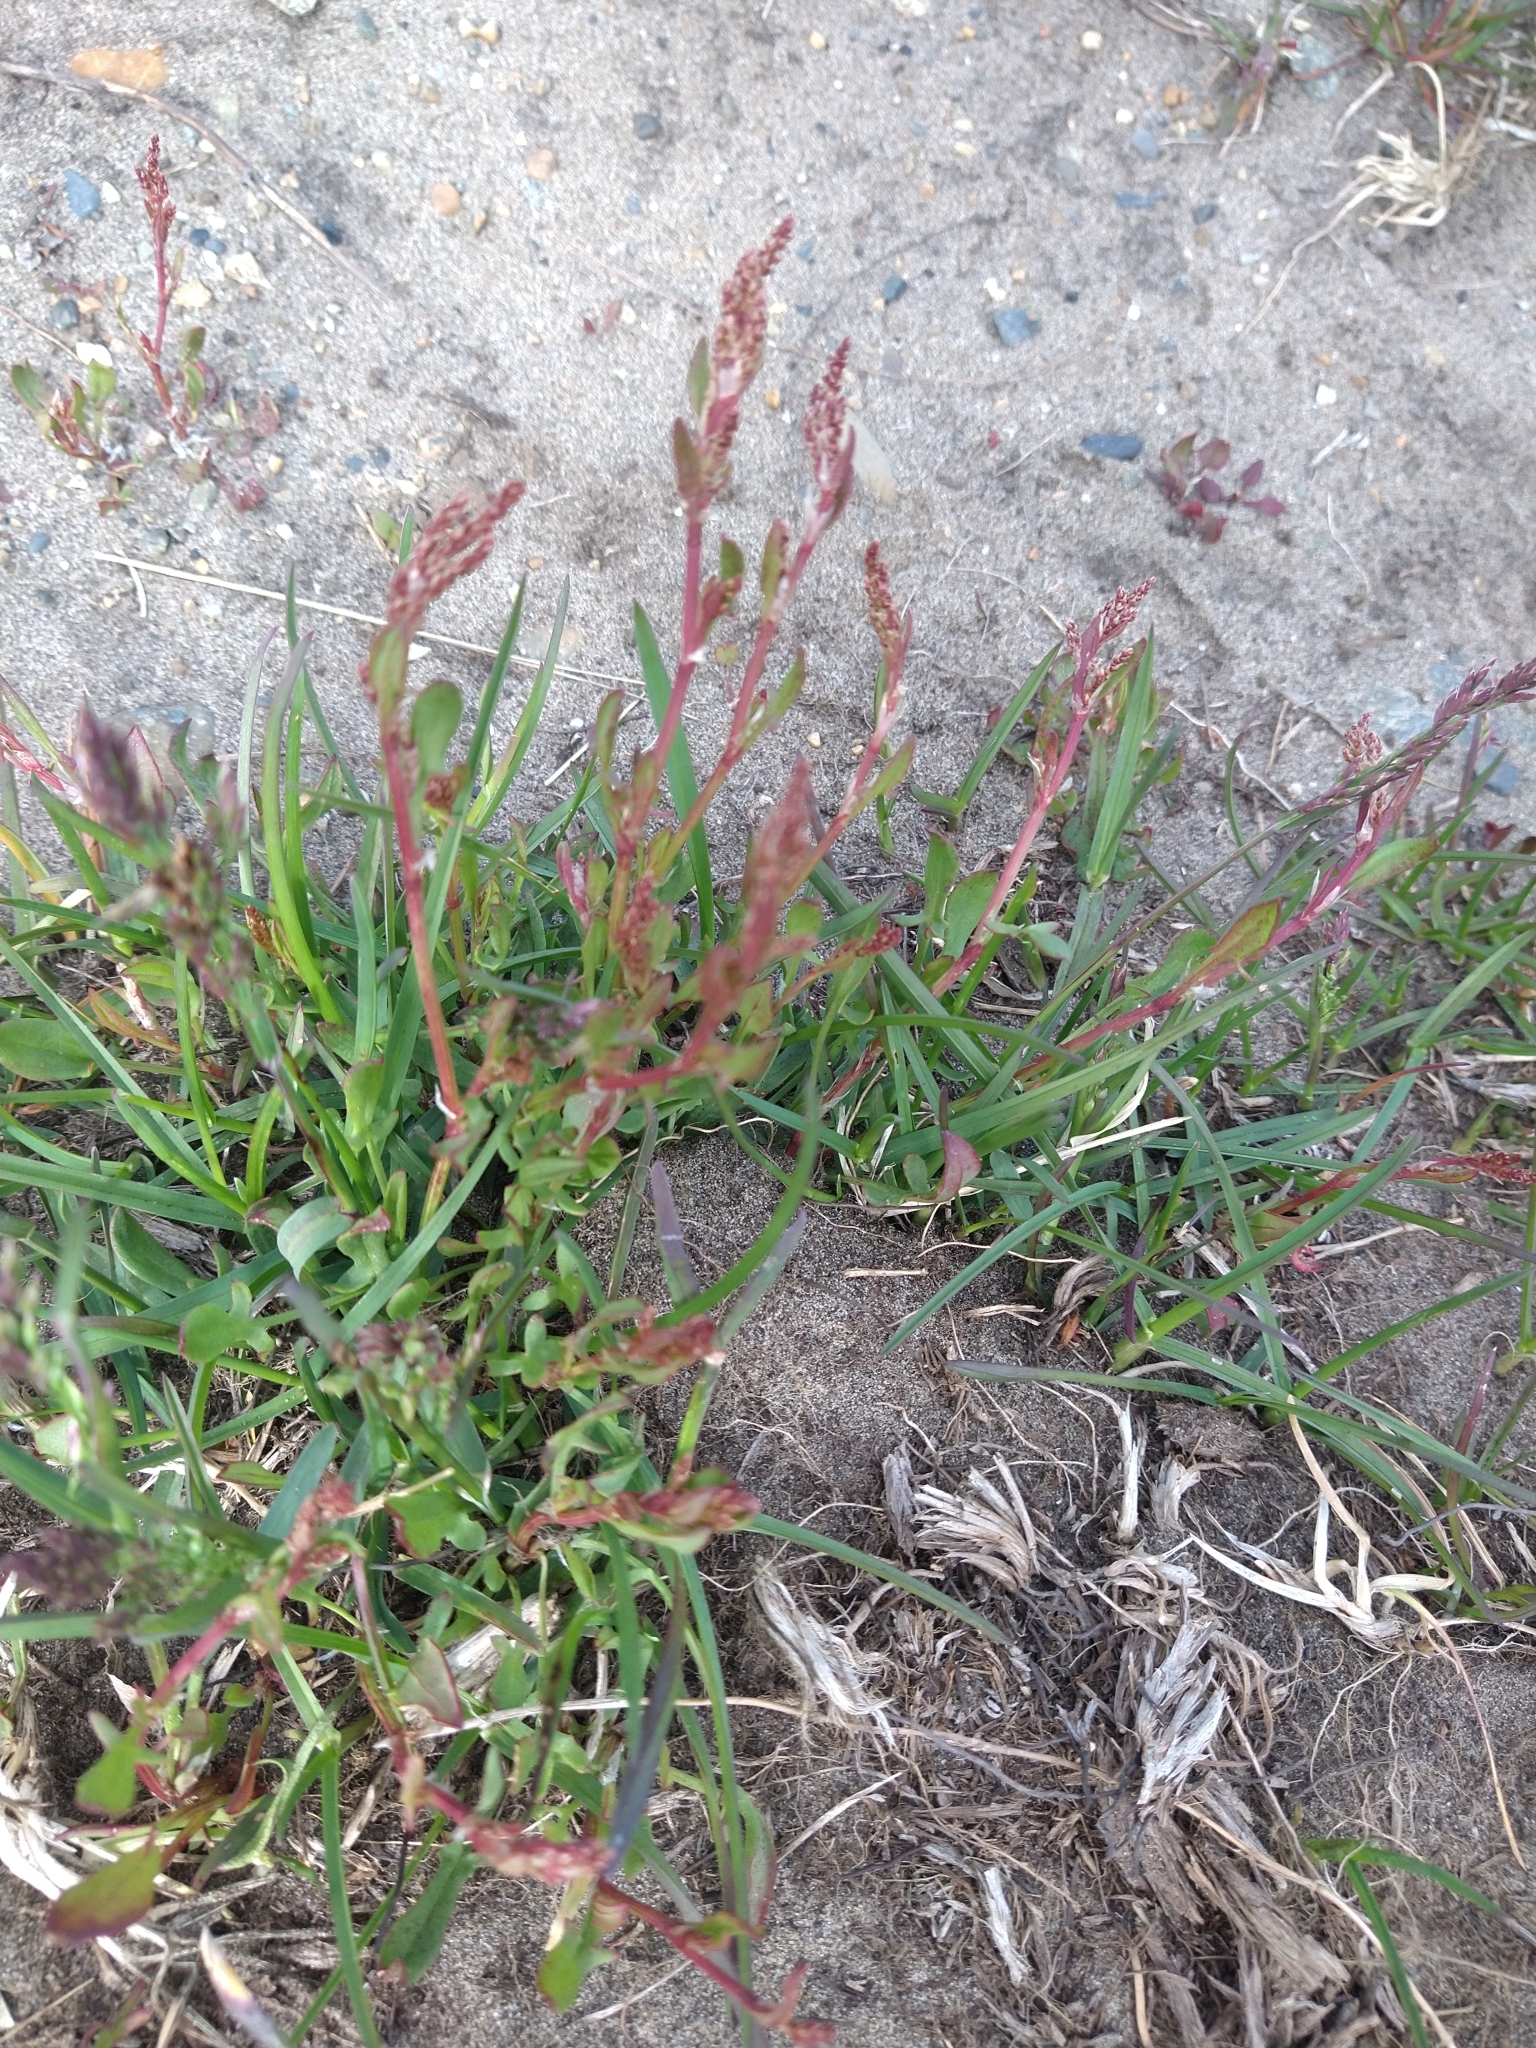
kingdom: Plantae
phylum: Tracheophyta
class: Magnoliopsida
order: Caryophyllales
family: Polygonaceae
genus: Rumex
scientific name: Rumex acetosella
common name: Common sheep sorrel
